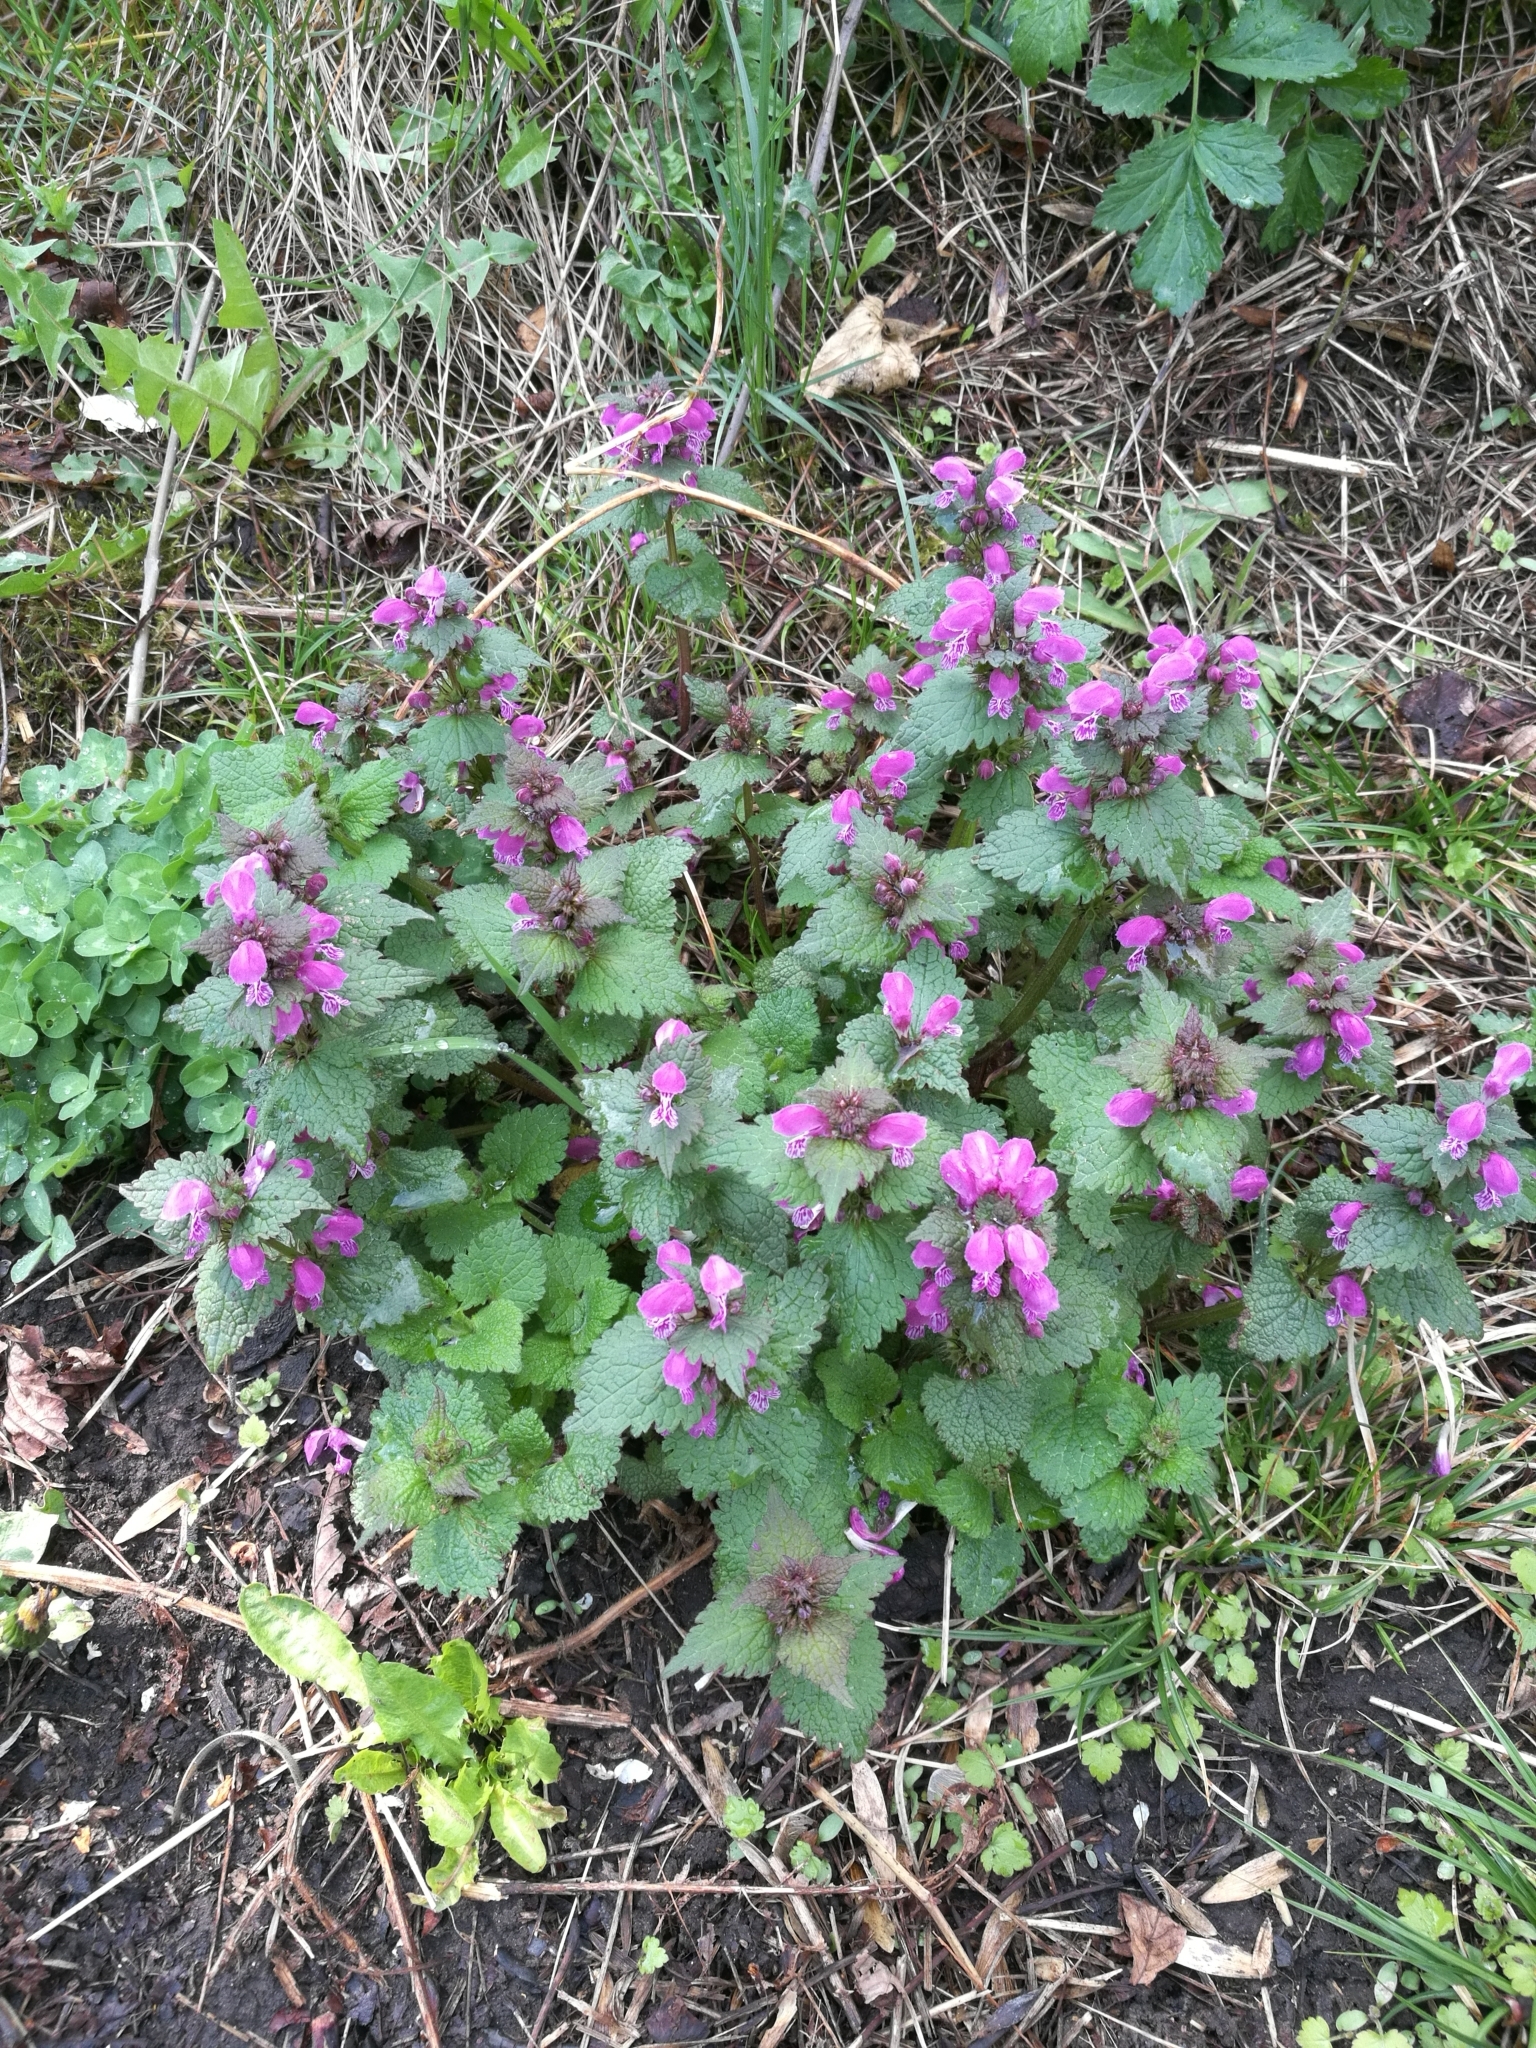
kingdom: Plantae
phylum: Tracheophyta
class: Magnoliopsida
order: Lamiales
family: Lamiaceae
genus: Lamium
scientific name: Lamium maculatum
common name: Spotted dead-nettle
